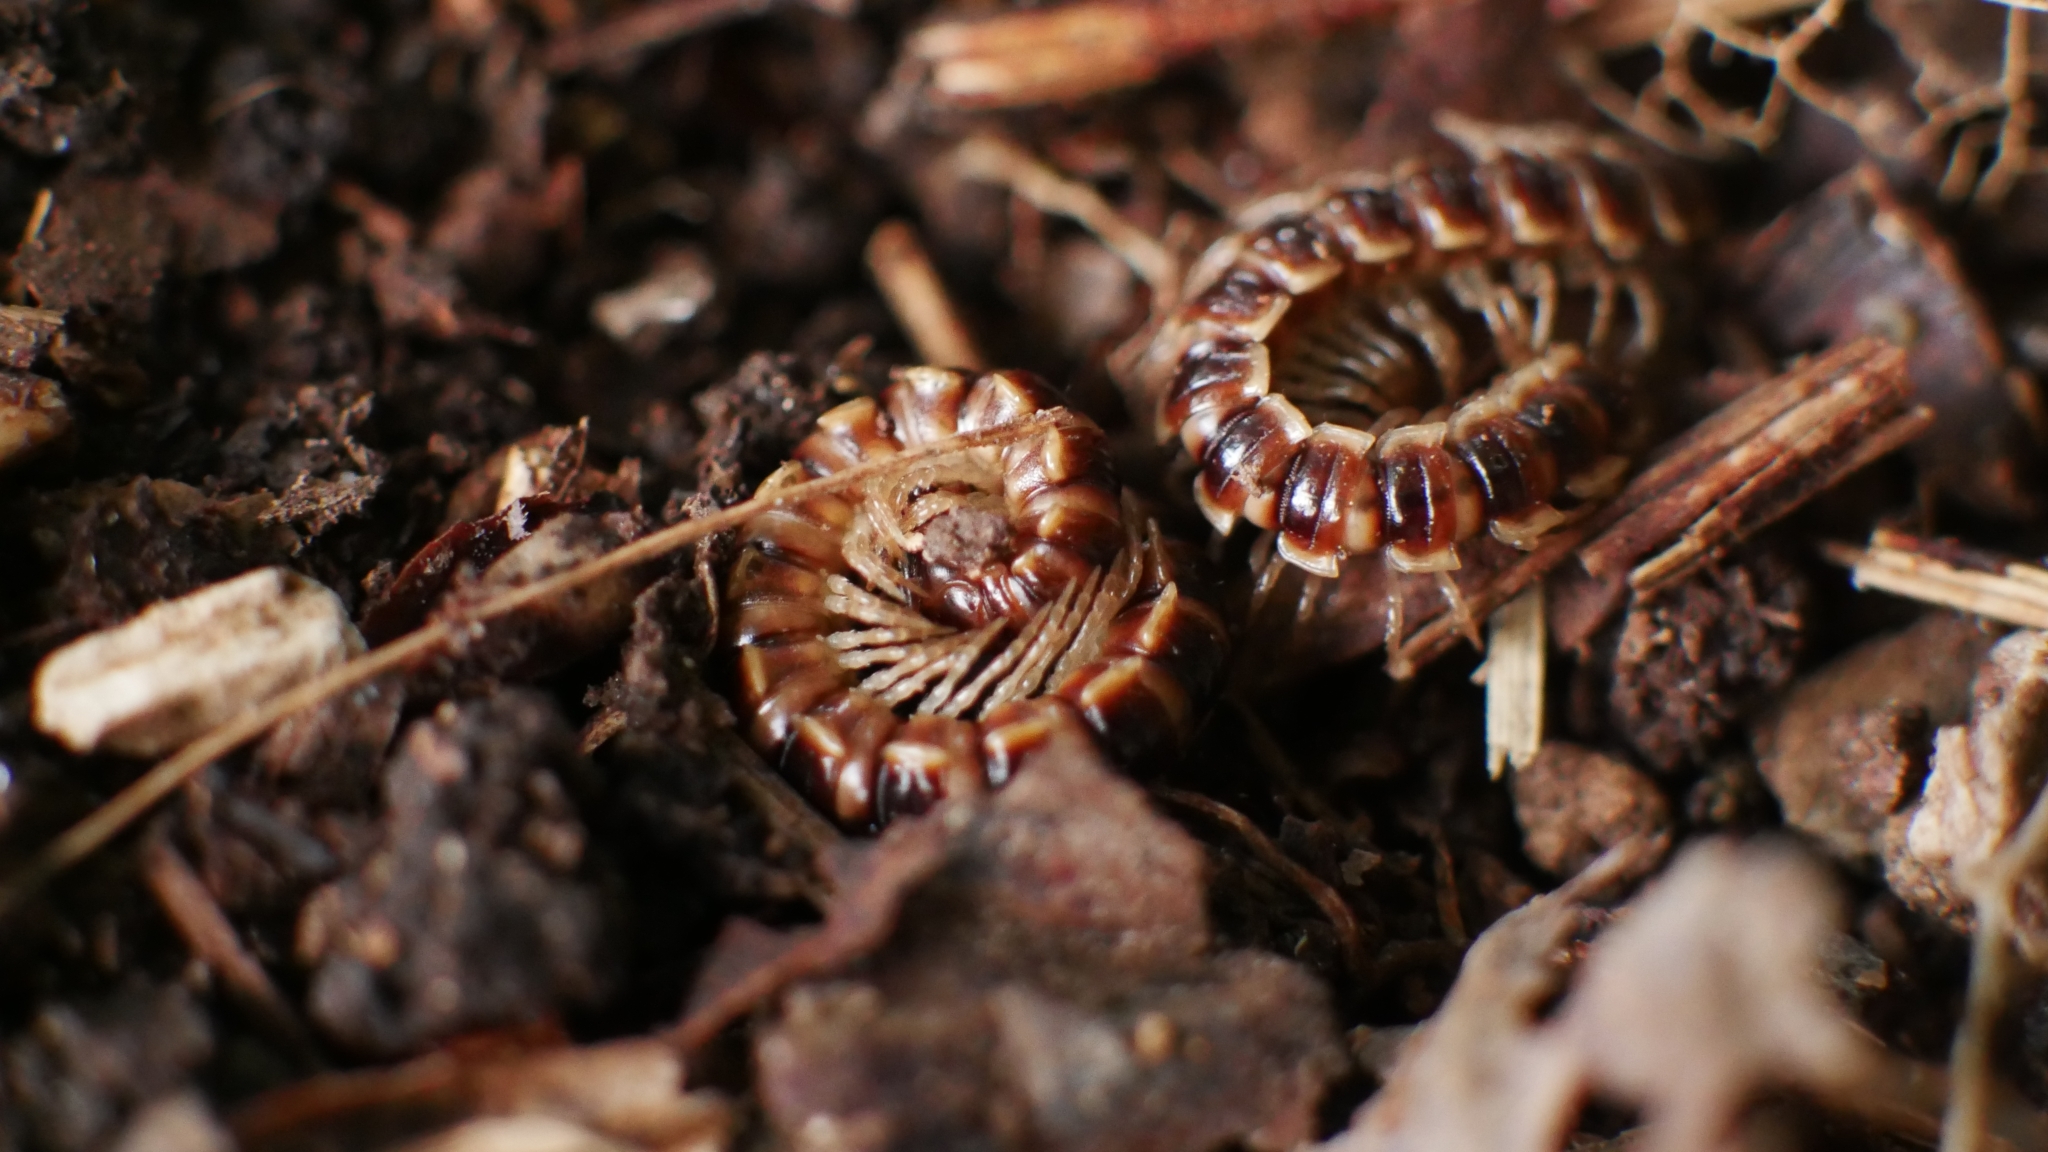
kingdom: Animalia
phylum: Arthropoda
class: Diplopoda
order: Polydesmida
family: Paradoxosomatidae
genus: Oxidus
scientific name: Oxidus gracilis
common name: Greenhouse millipede
